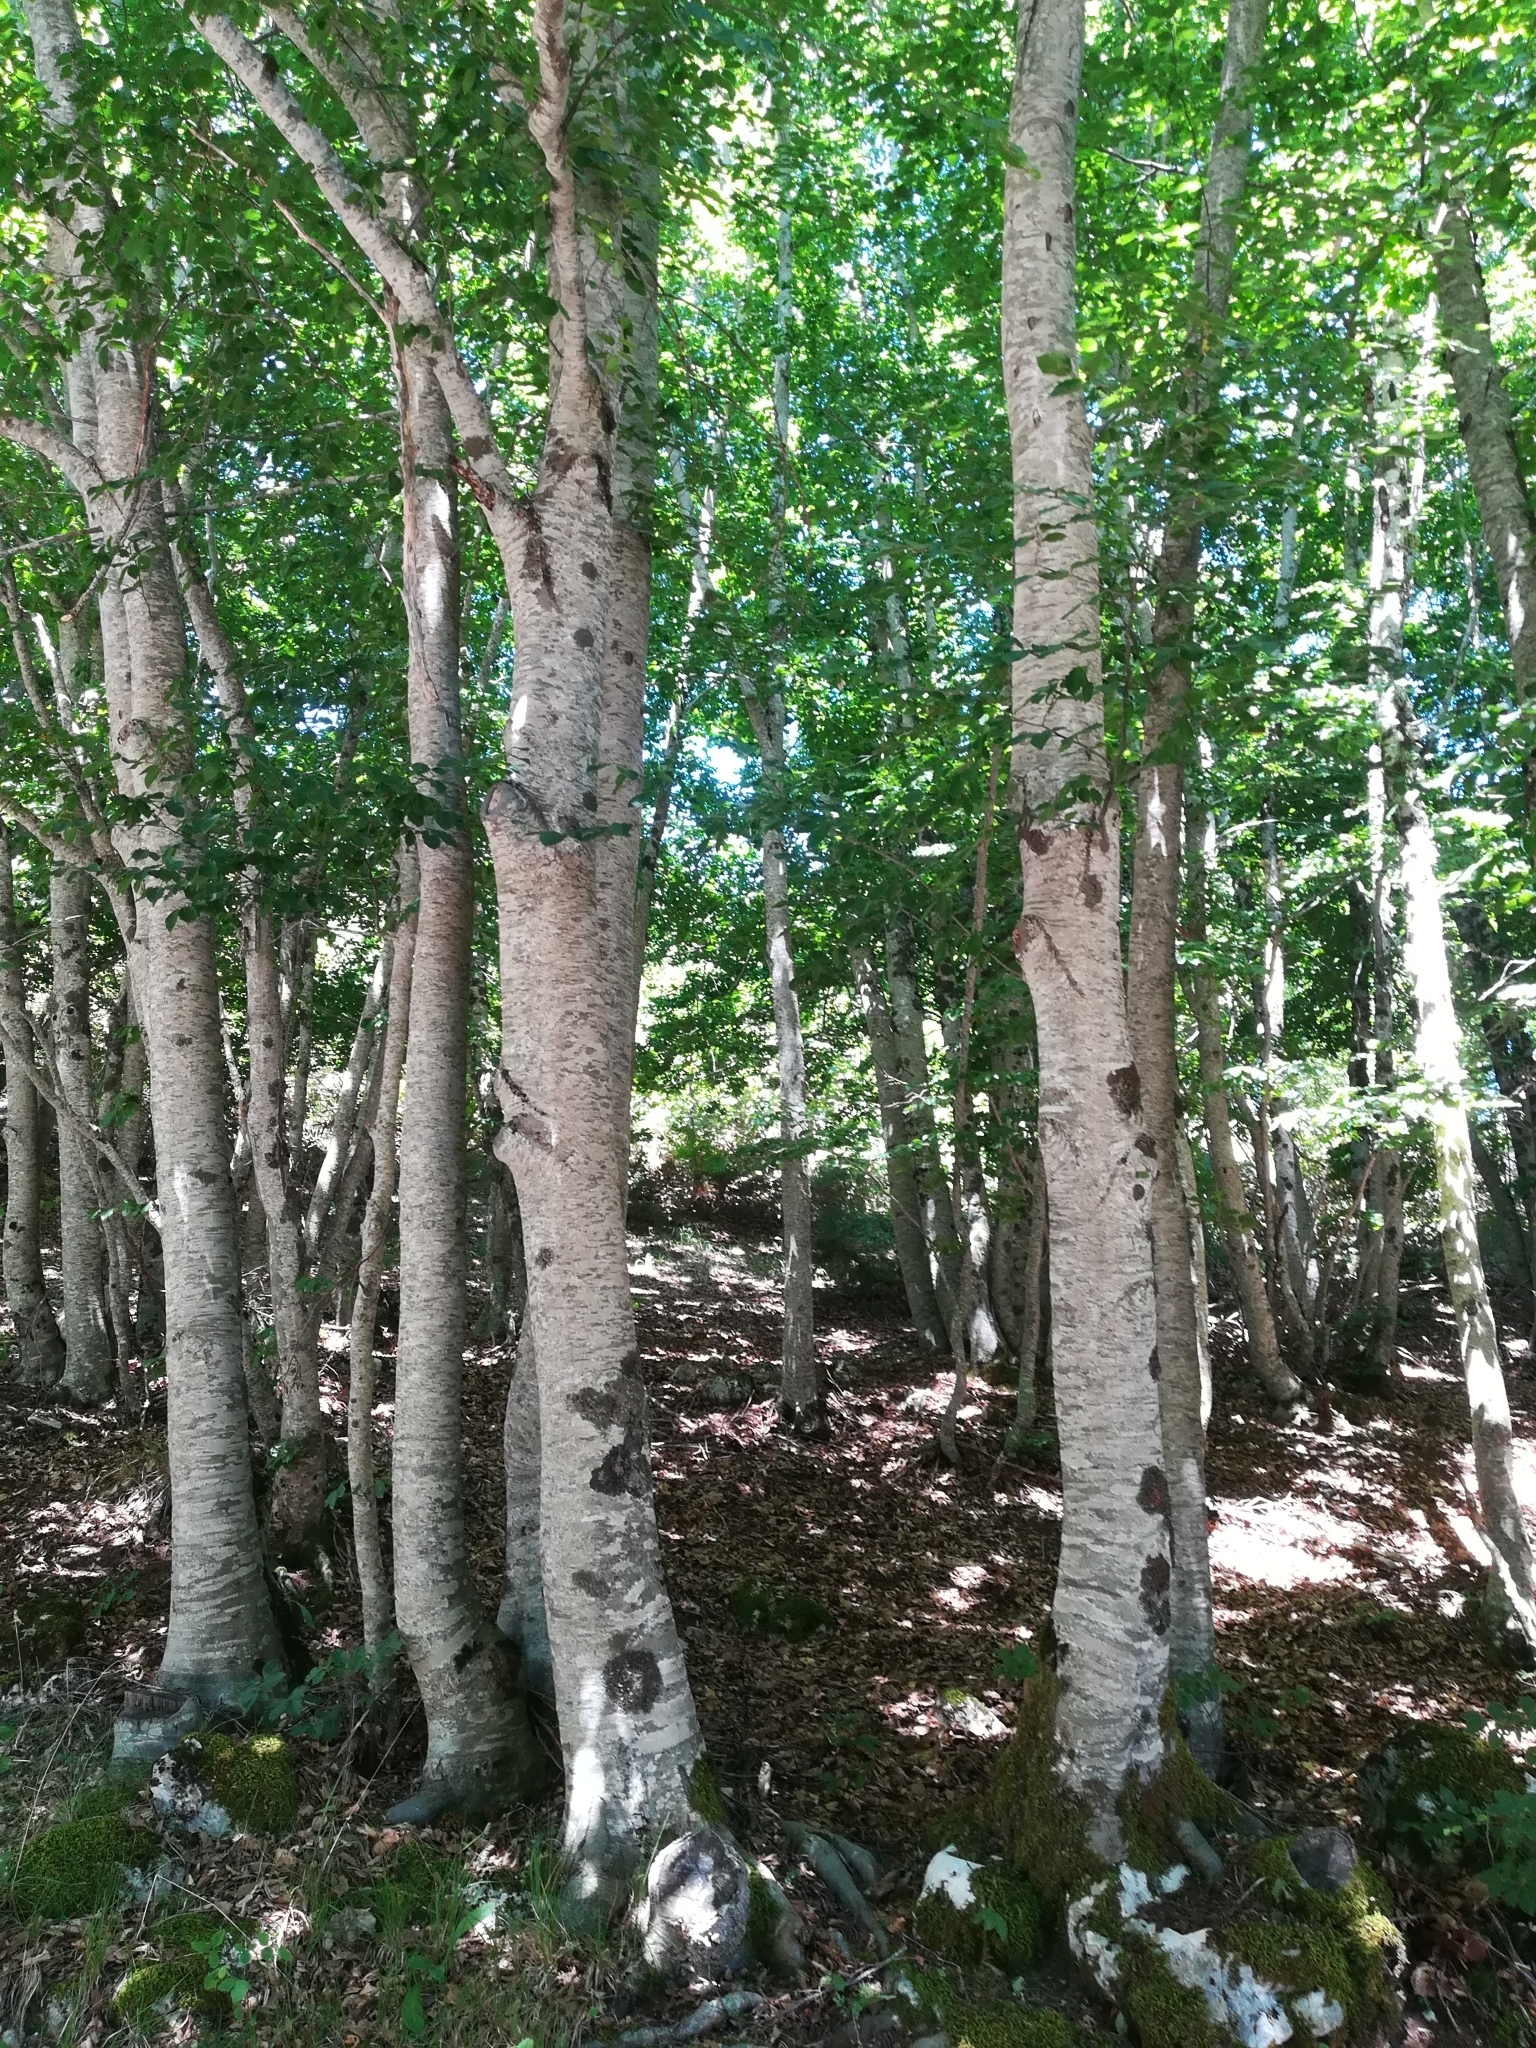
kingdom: Plantae
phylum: Tracheophyta
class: Magnoliopsida
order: Fagales
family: Fagaceae
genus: Fagus
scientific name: Fagus sylvatica
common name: Beech
